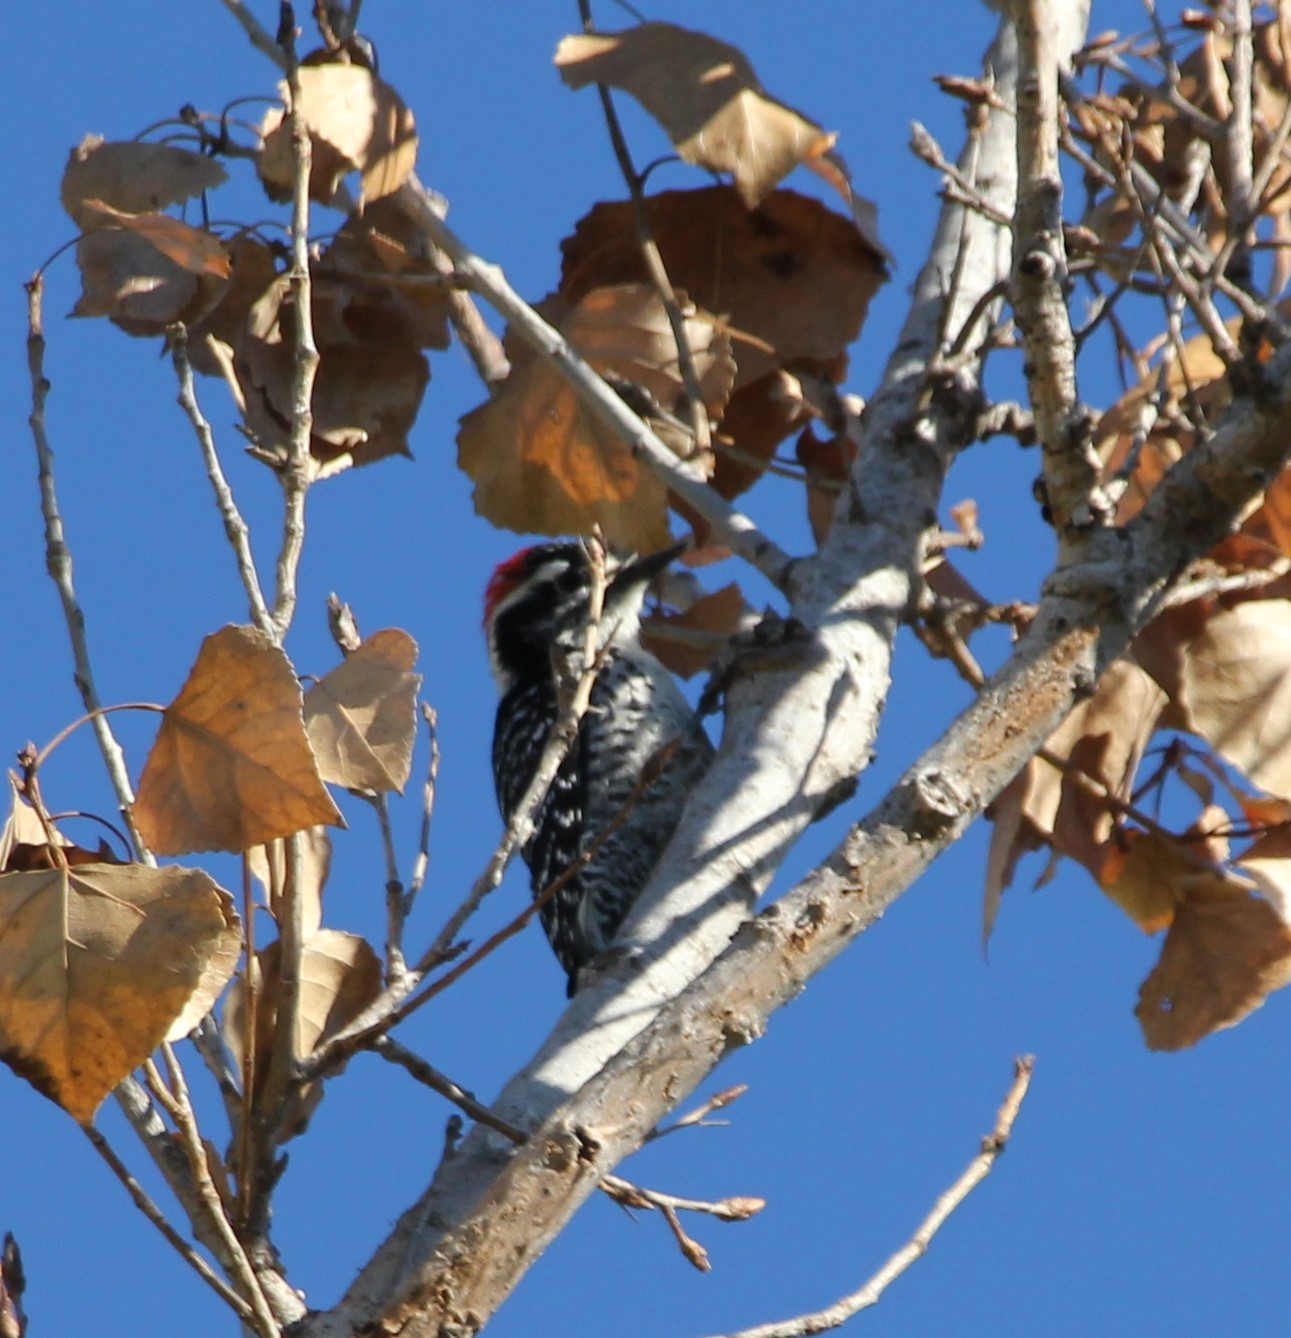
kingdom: Animalia
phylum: Chordata
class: Aves
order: Piciformes
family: Picidae
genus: Dryobates
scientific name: Dryobates nuttallii
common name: Nuttall's woodpecker
